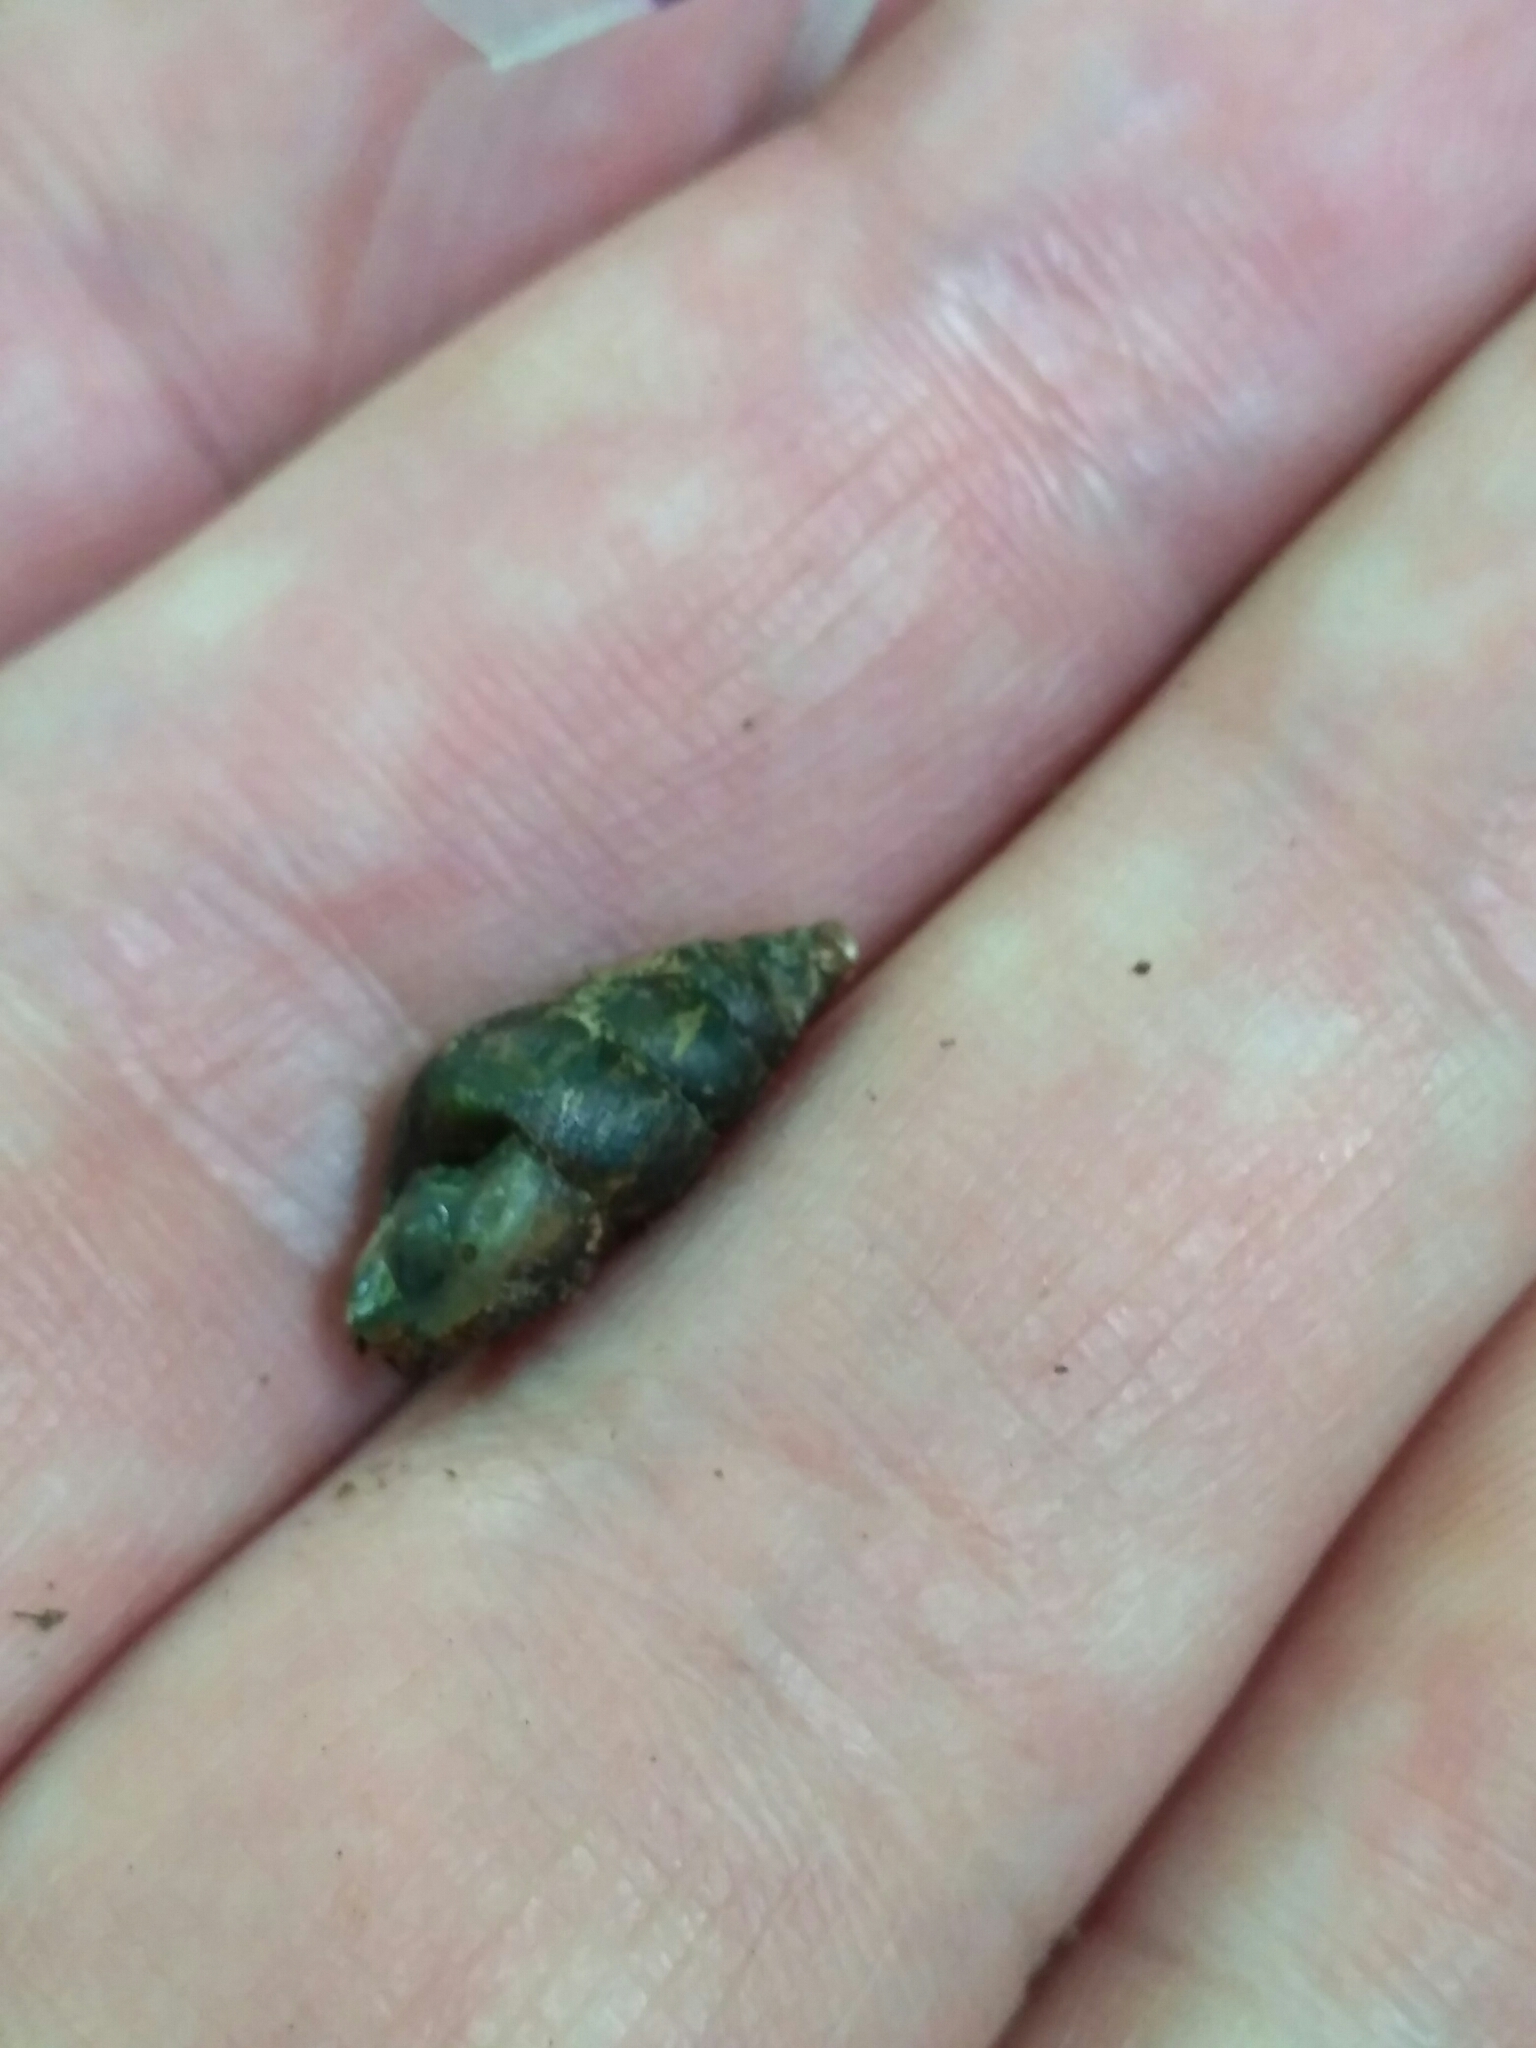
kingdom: Animalia
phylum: Mollusca
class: Gastropoda
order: Stylommatophora
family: Enidae
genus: Ena
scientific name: Ena montana
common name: Mountain bulin
